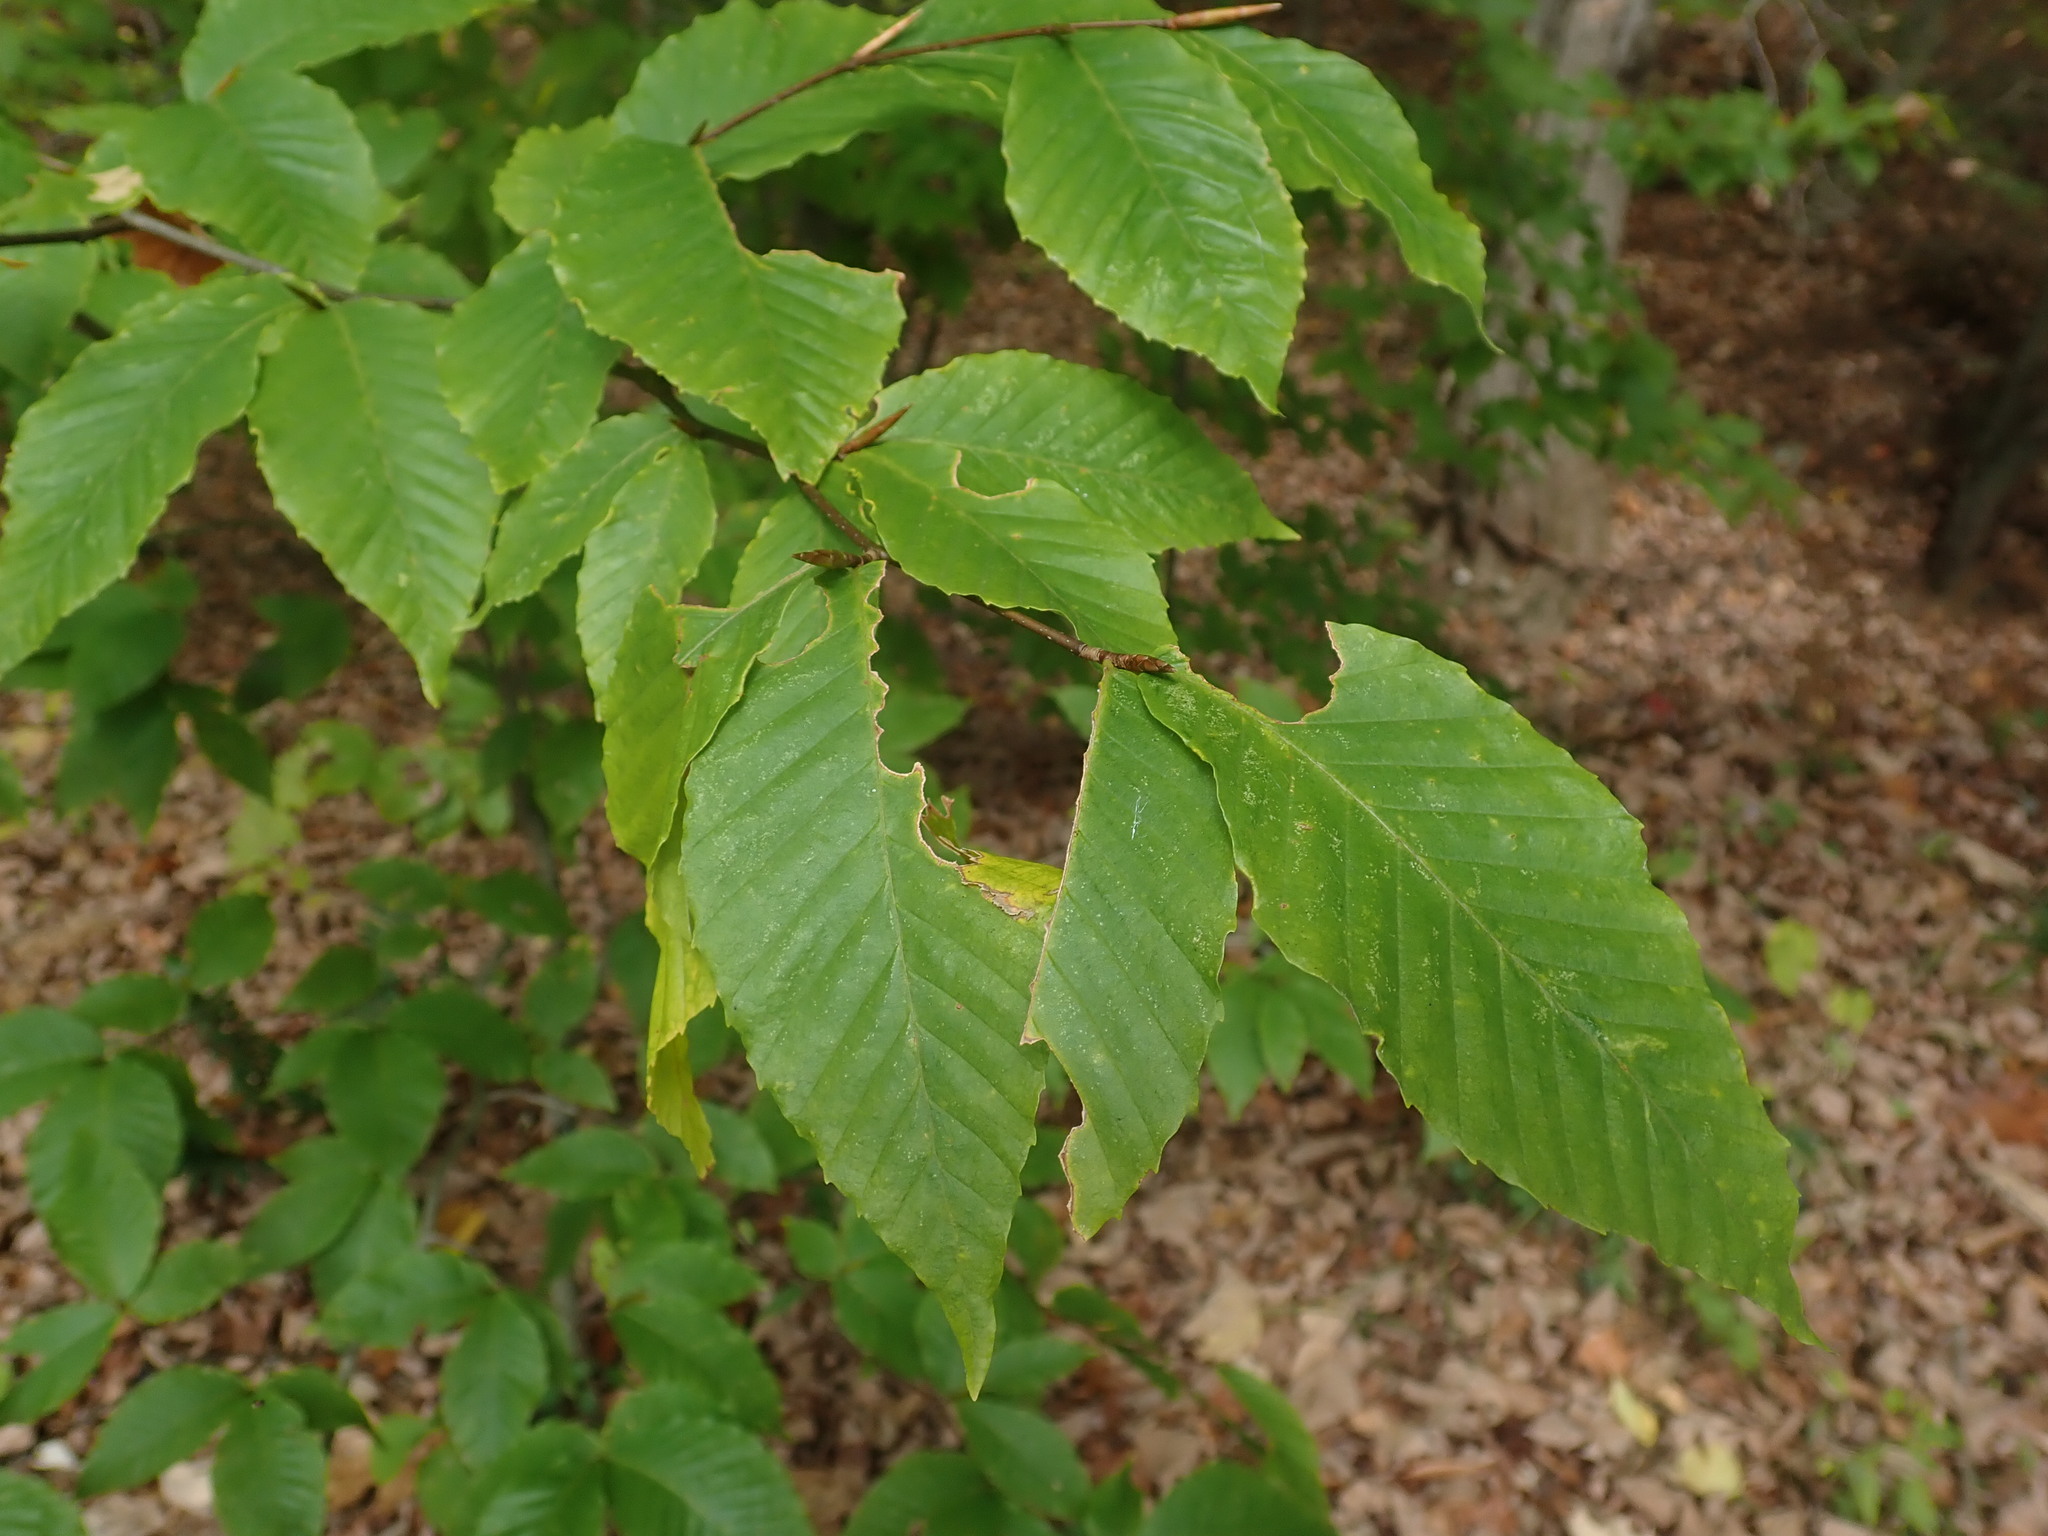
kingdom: Plantae
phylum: Tracheophyta
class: Magnoliopsida
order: Fagales
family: Fagaceae
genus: Fagus
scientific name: Fagus grandifolia
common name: American beech
